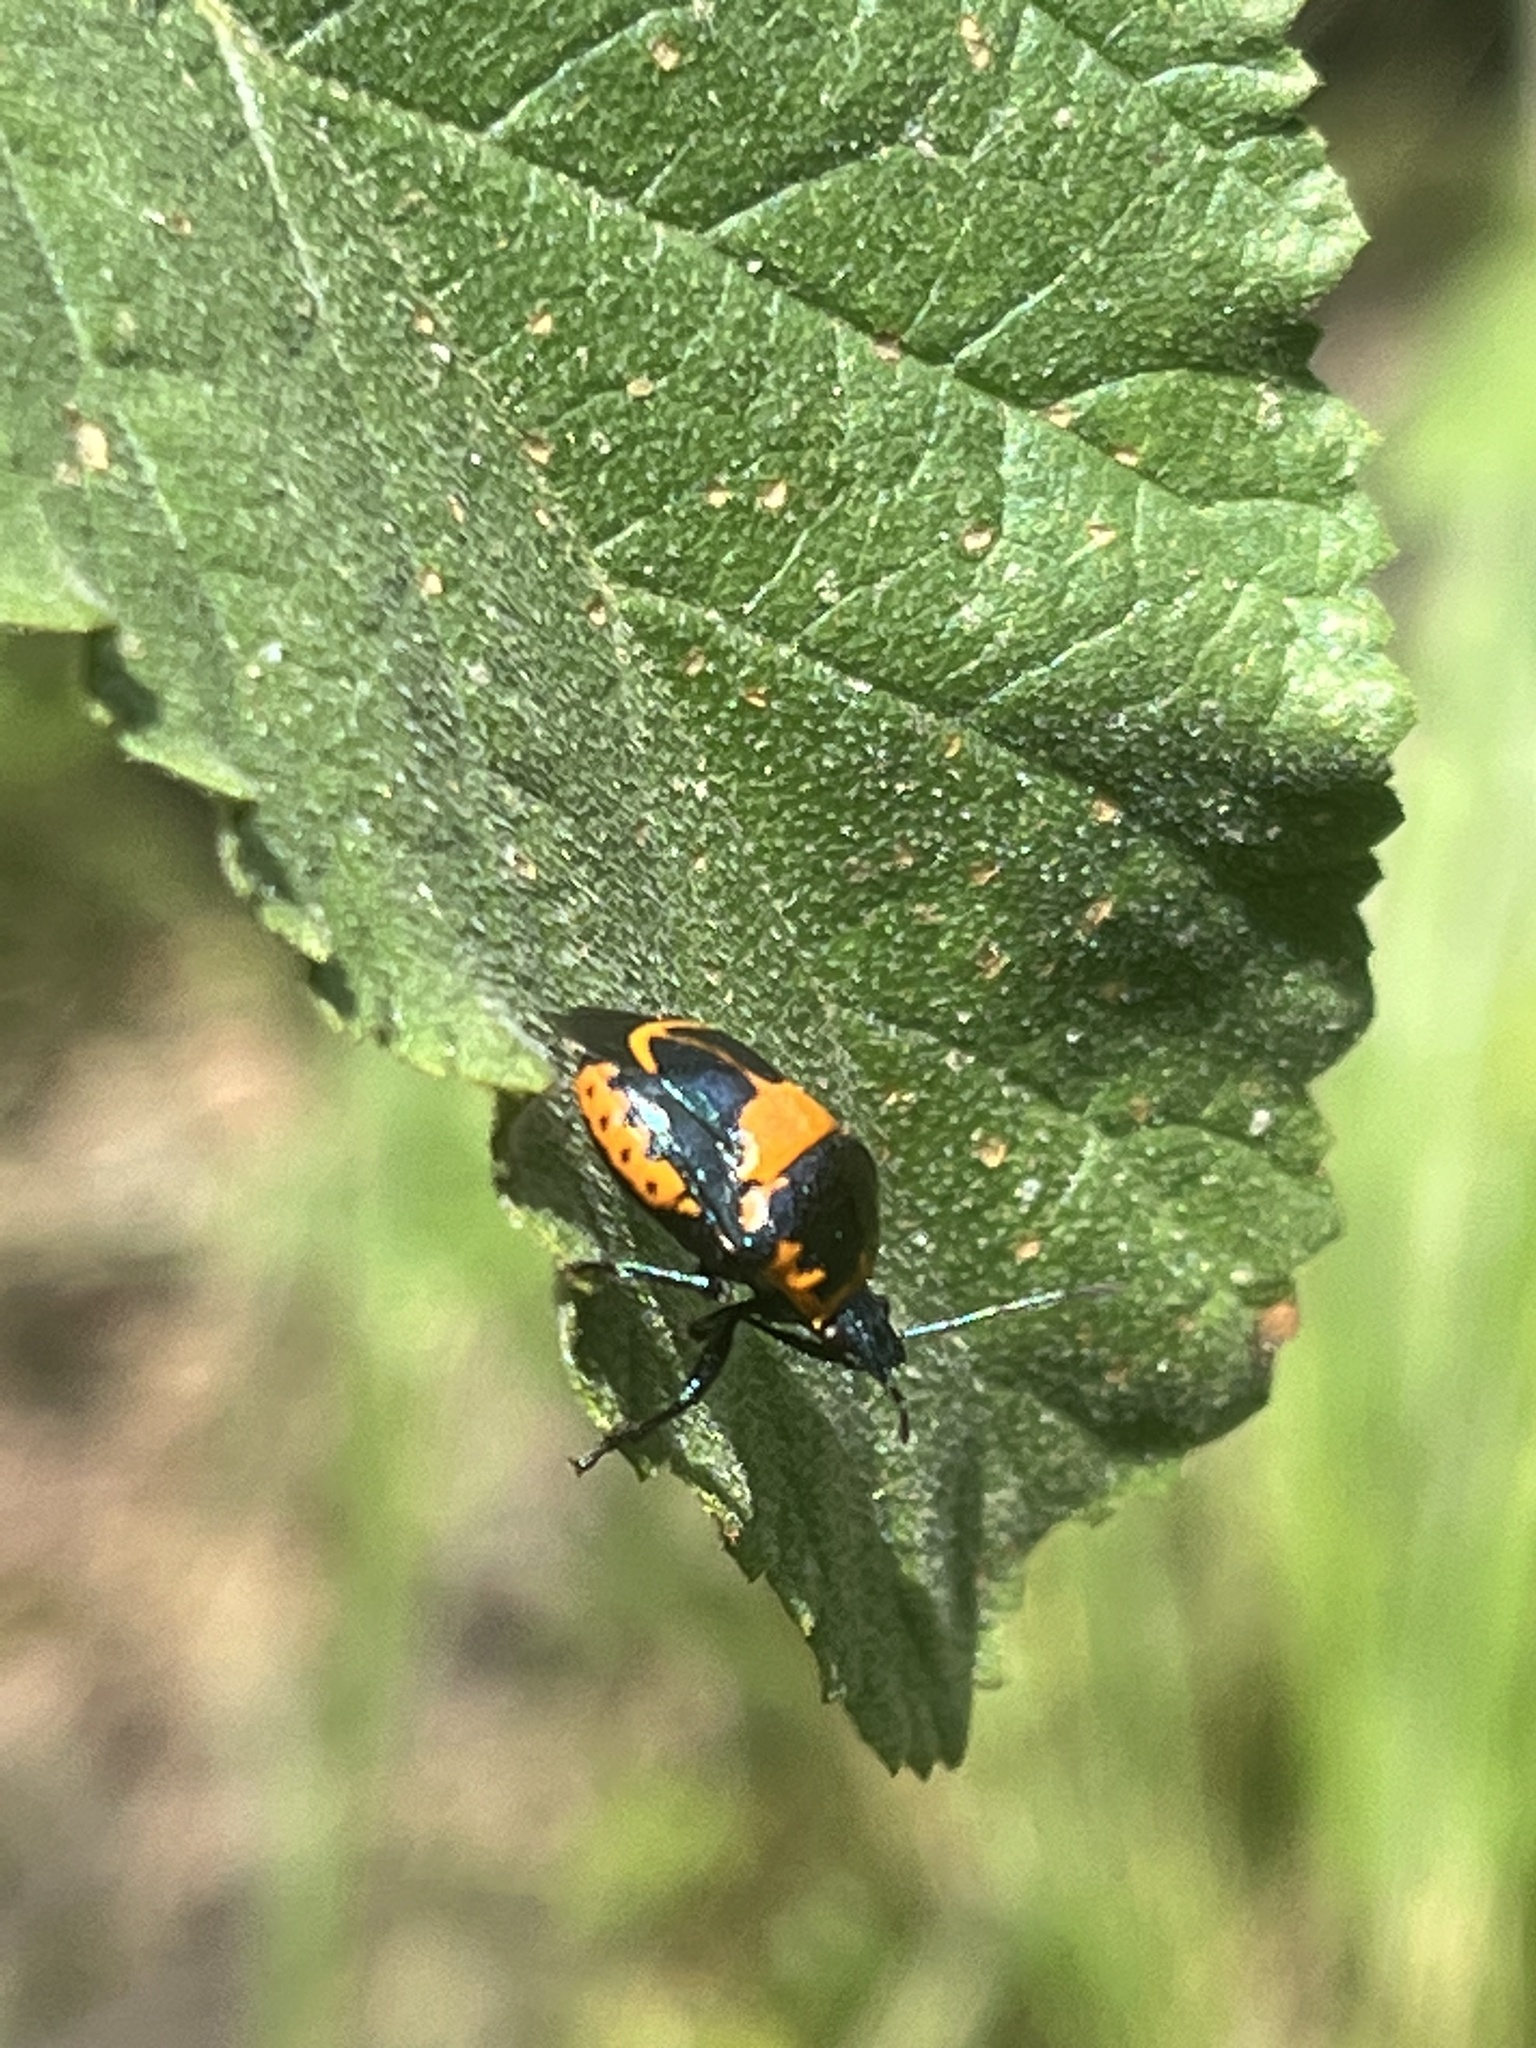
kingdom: Animalia
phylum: Arthropoda
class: Insecta
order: Hemiptera
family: Pentatomidae
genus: Stiretrus
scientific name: Stiretrus anchorago
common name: Anchor stink bug
